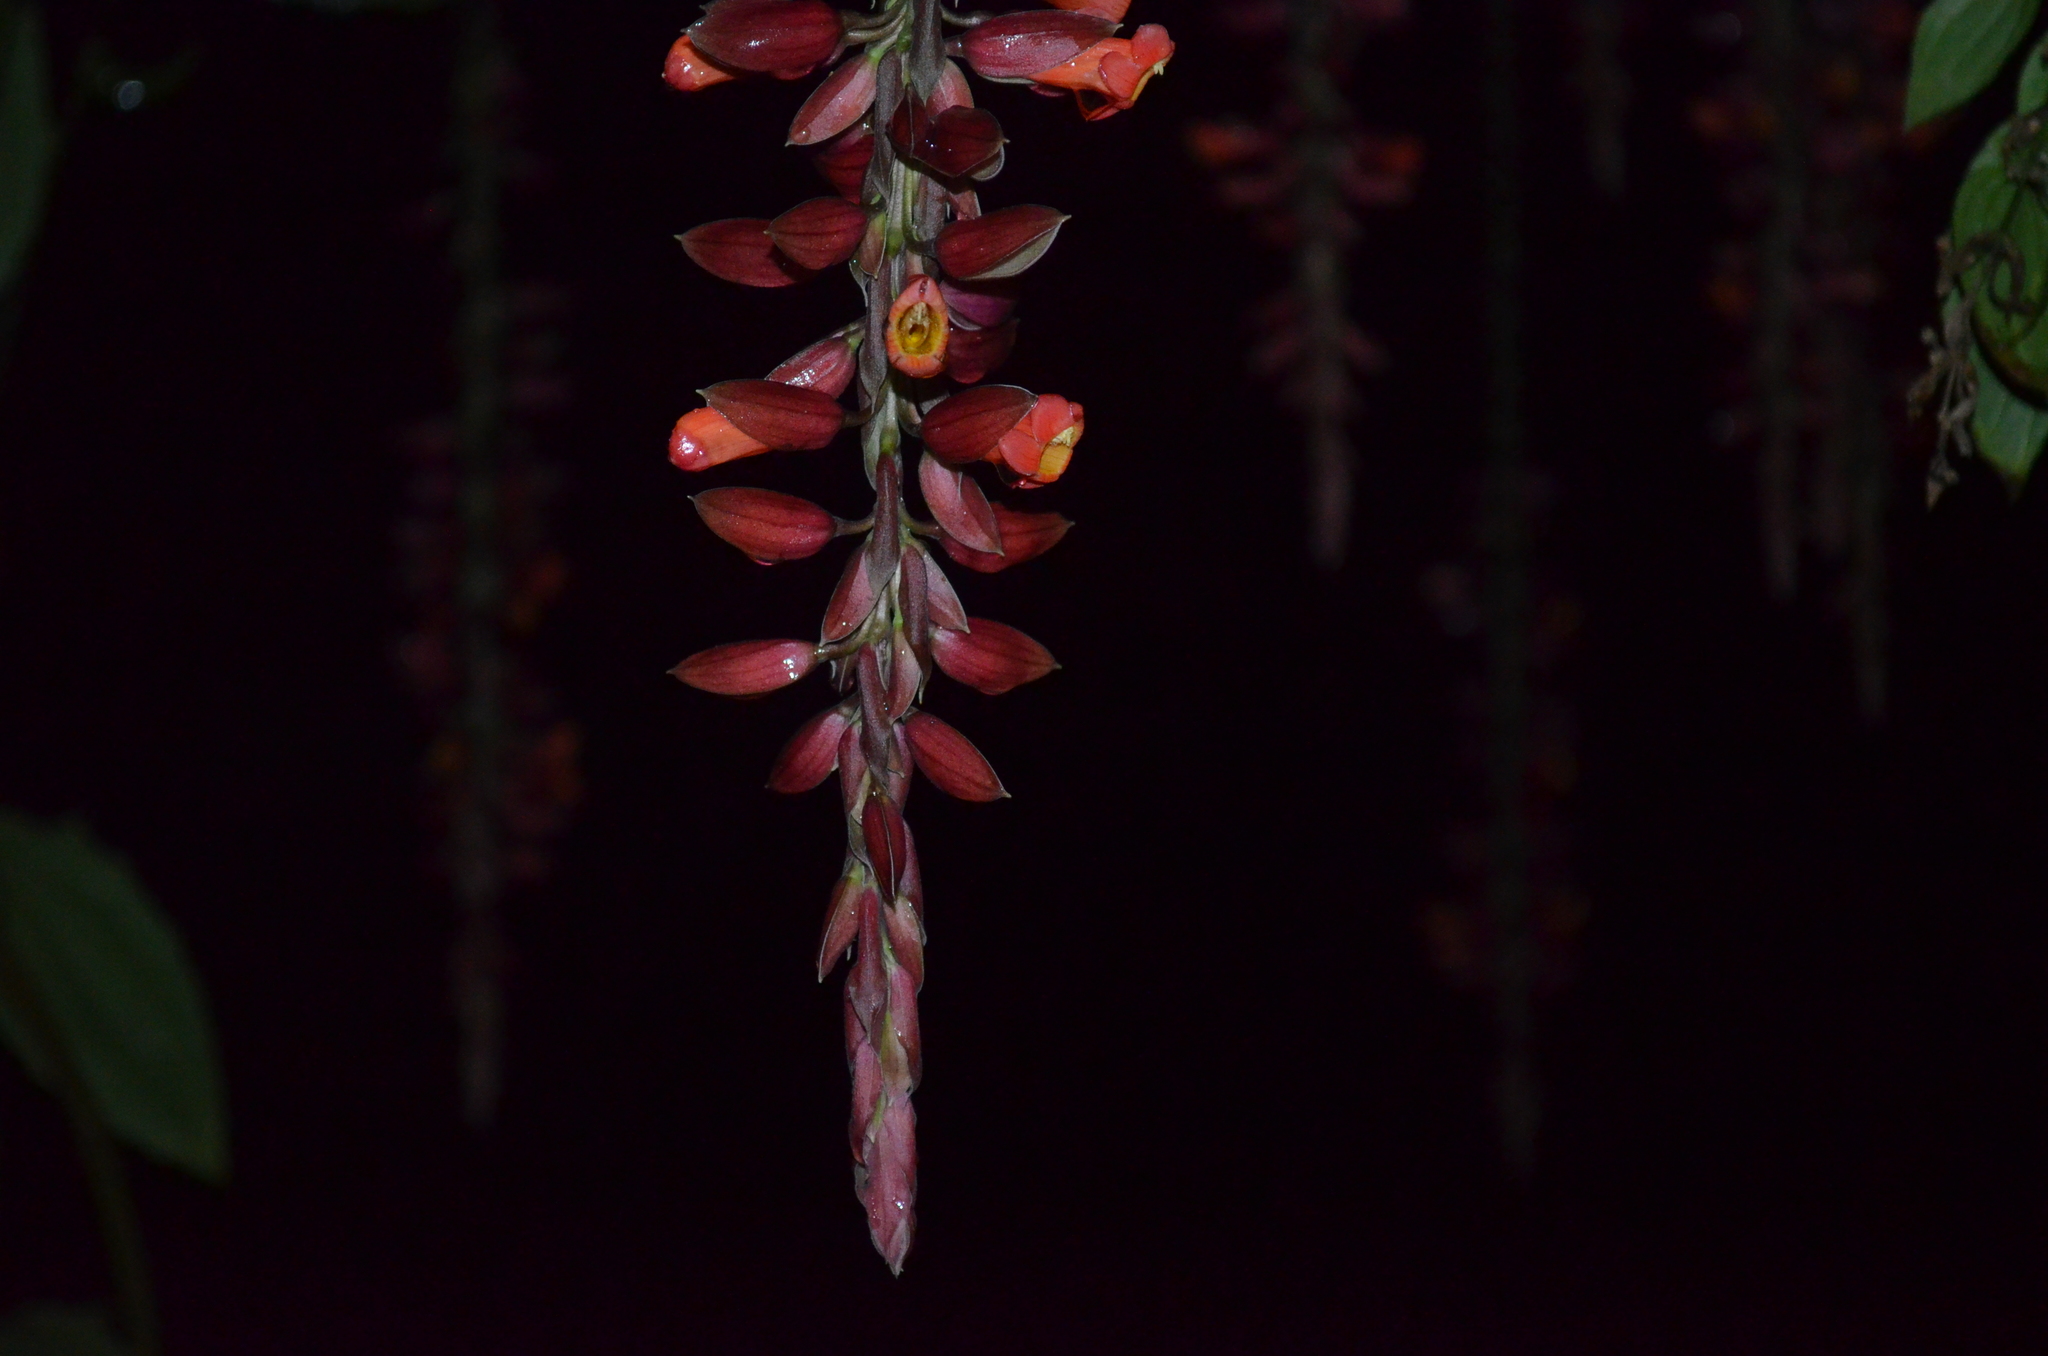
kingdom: Plantae
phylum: Tracheophyta
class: Magnoliopsida
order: Lamiales
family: Acanthaceae
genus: Thunbergia
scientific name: Thunbergia coccinea
